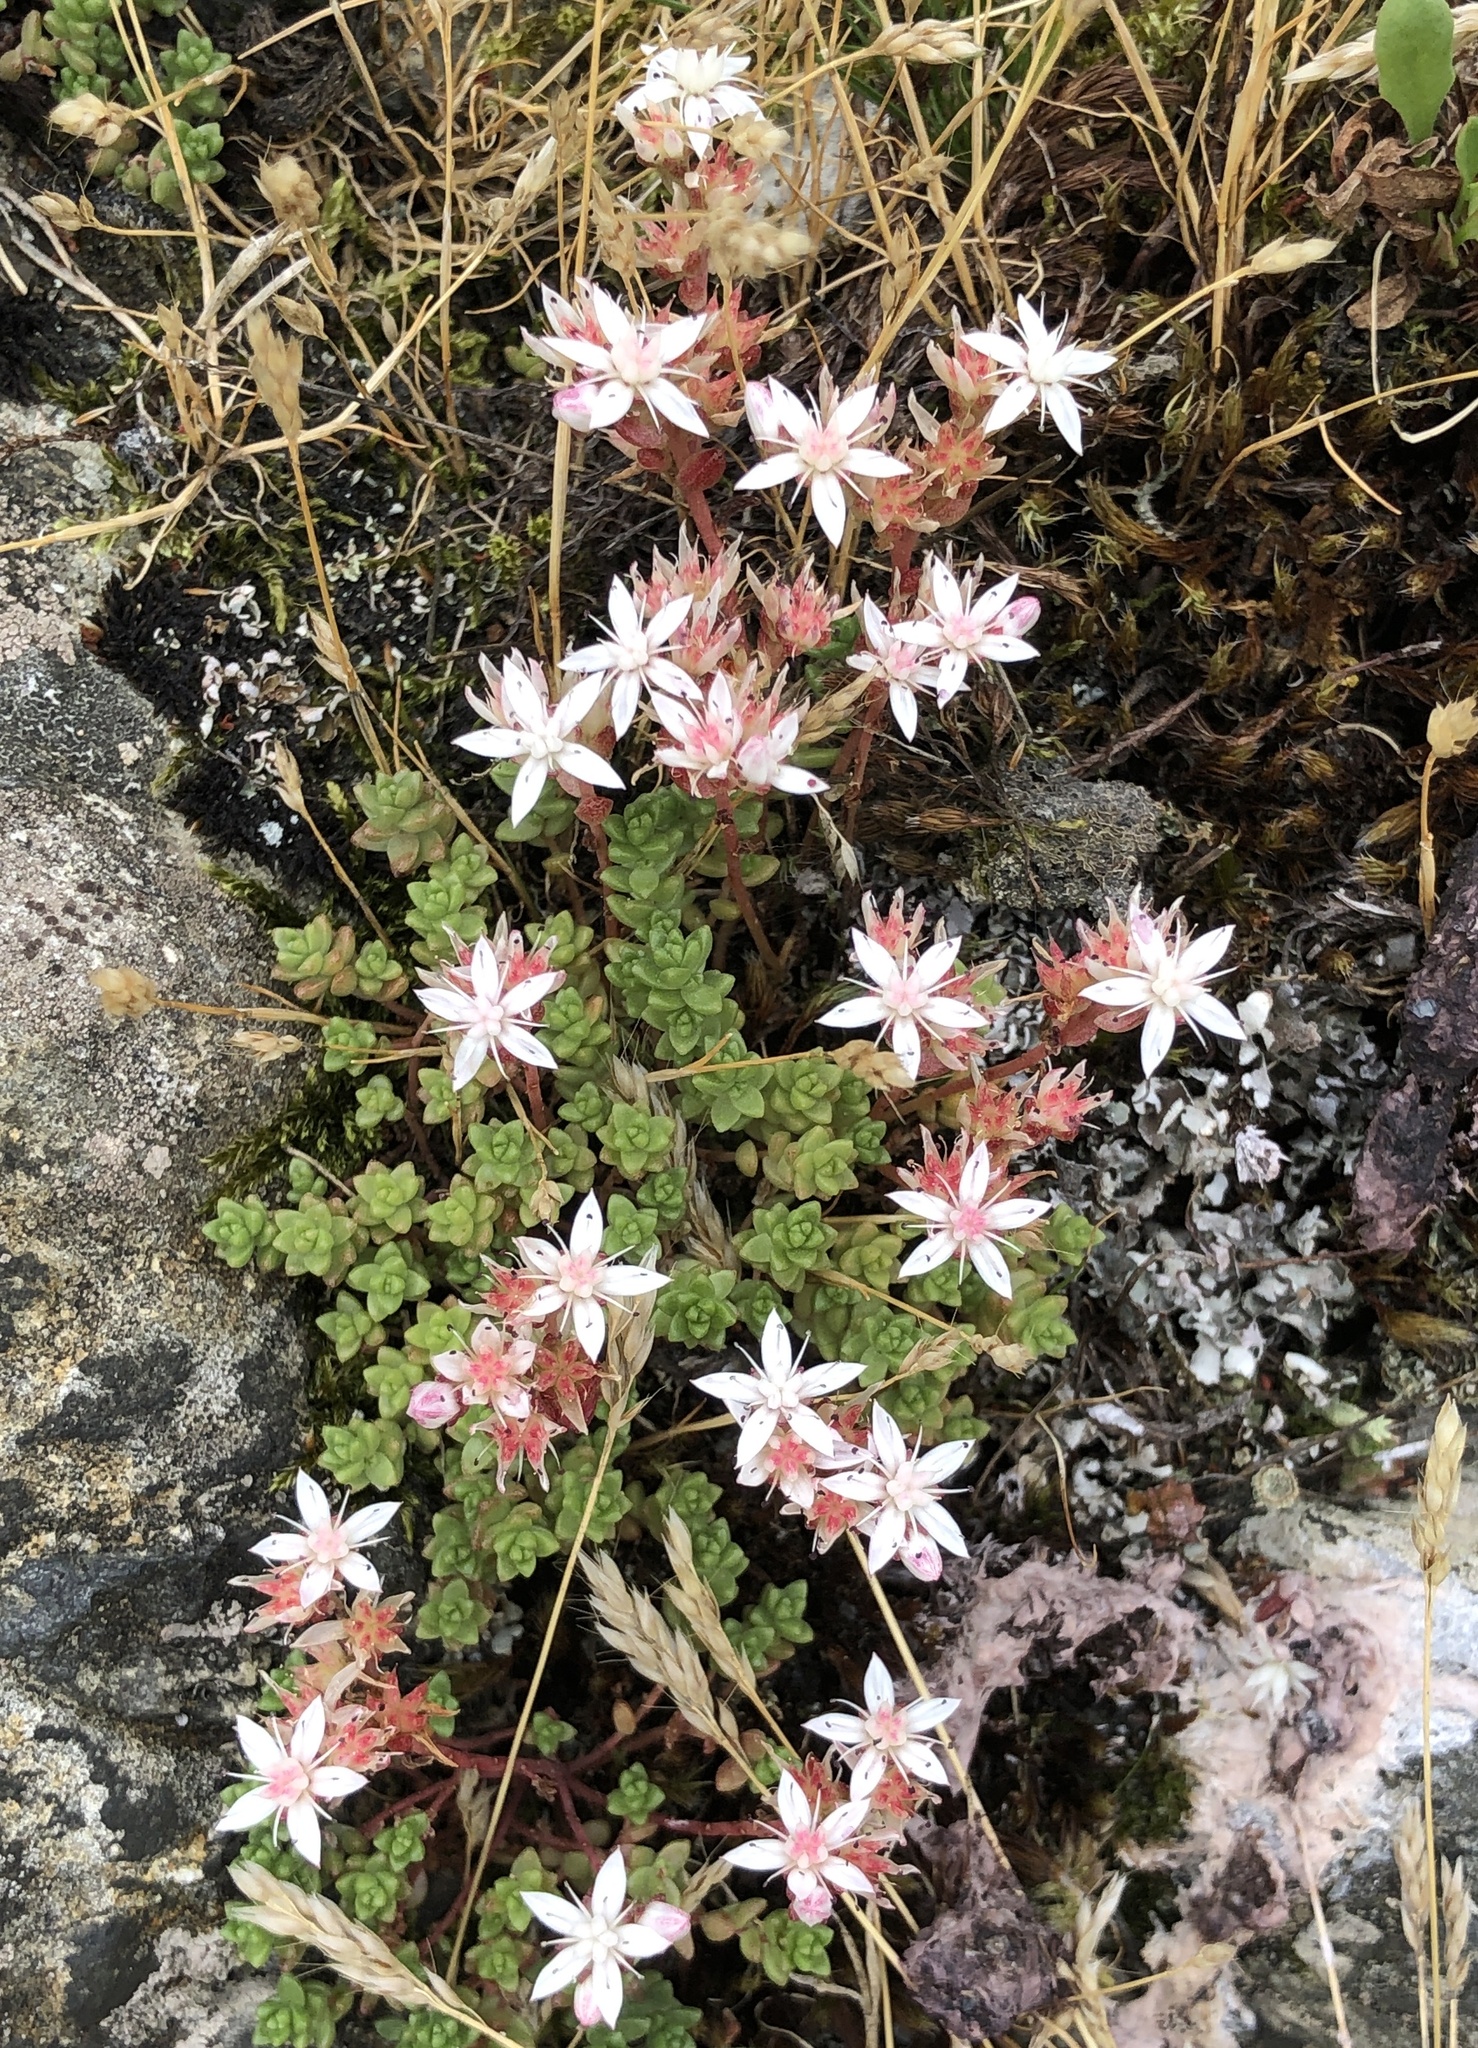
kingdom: Plantae
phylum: Tracheophyta
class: Magnoliopsida
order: Saxifragales
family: Crassulaceae
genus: Sedum
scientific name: Sedum anglicum
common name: English stonecrop
